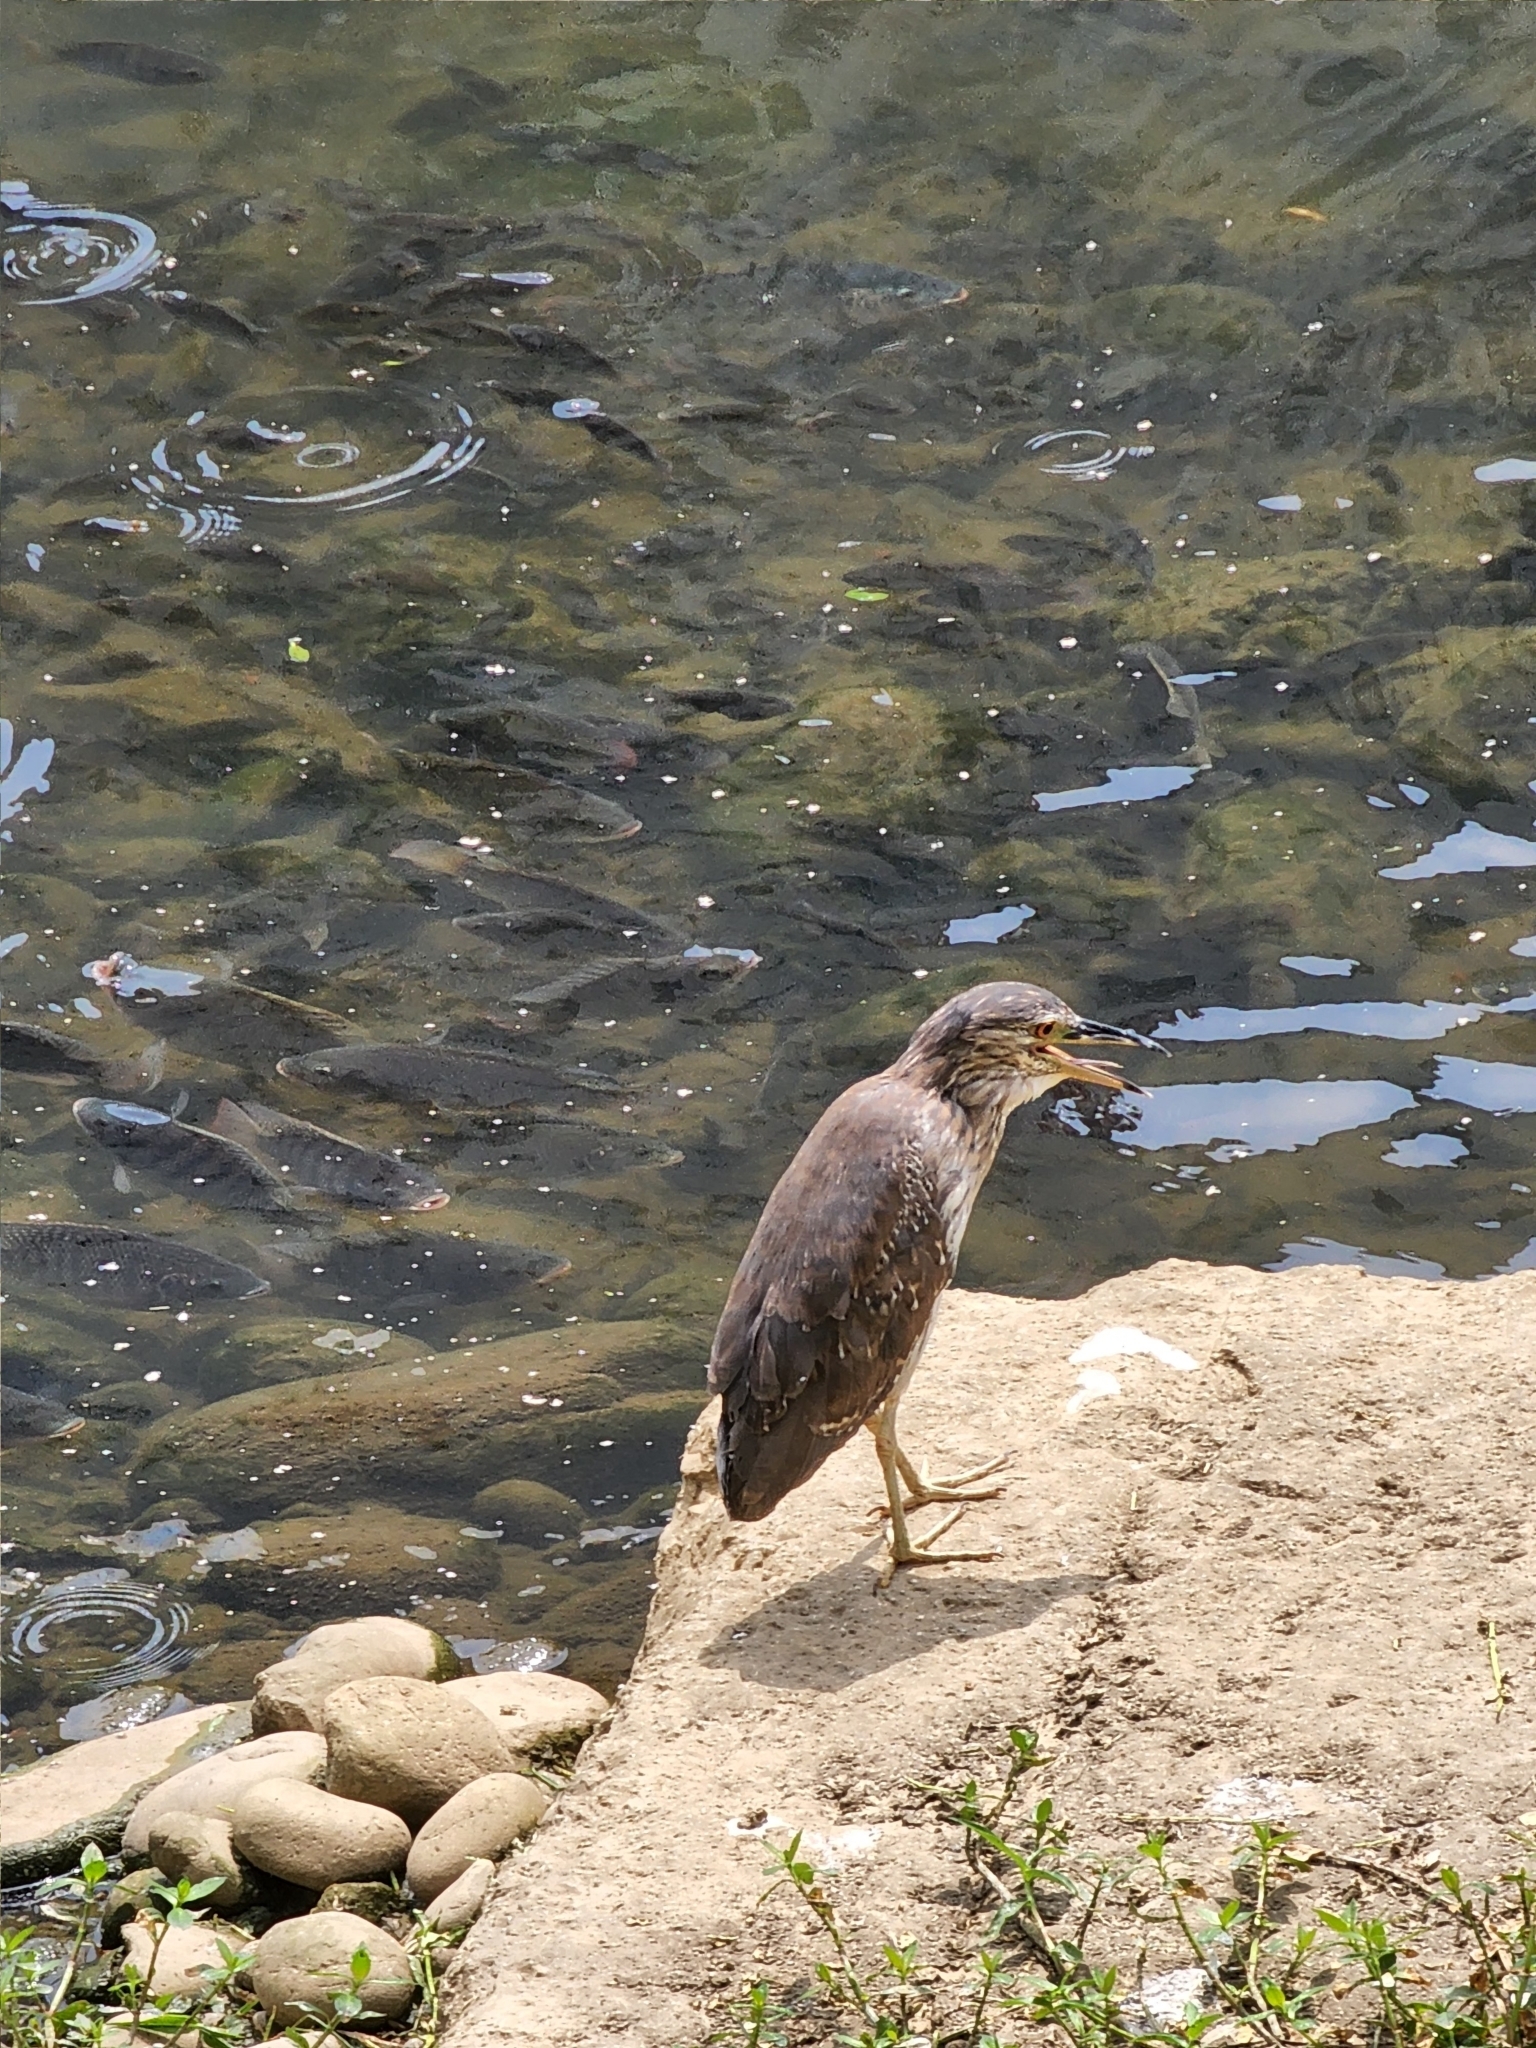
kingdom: Animalia
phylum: Chordata
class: Aves
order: Pelecaniformes
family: Ardeidae
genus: Nycticorax
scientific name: Nycticorax nycticorax
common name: Black-crowned night heron
